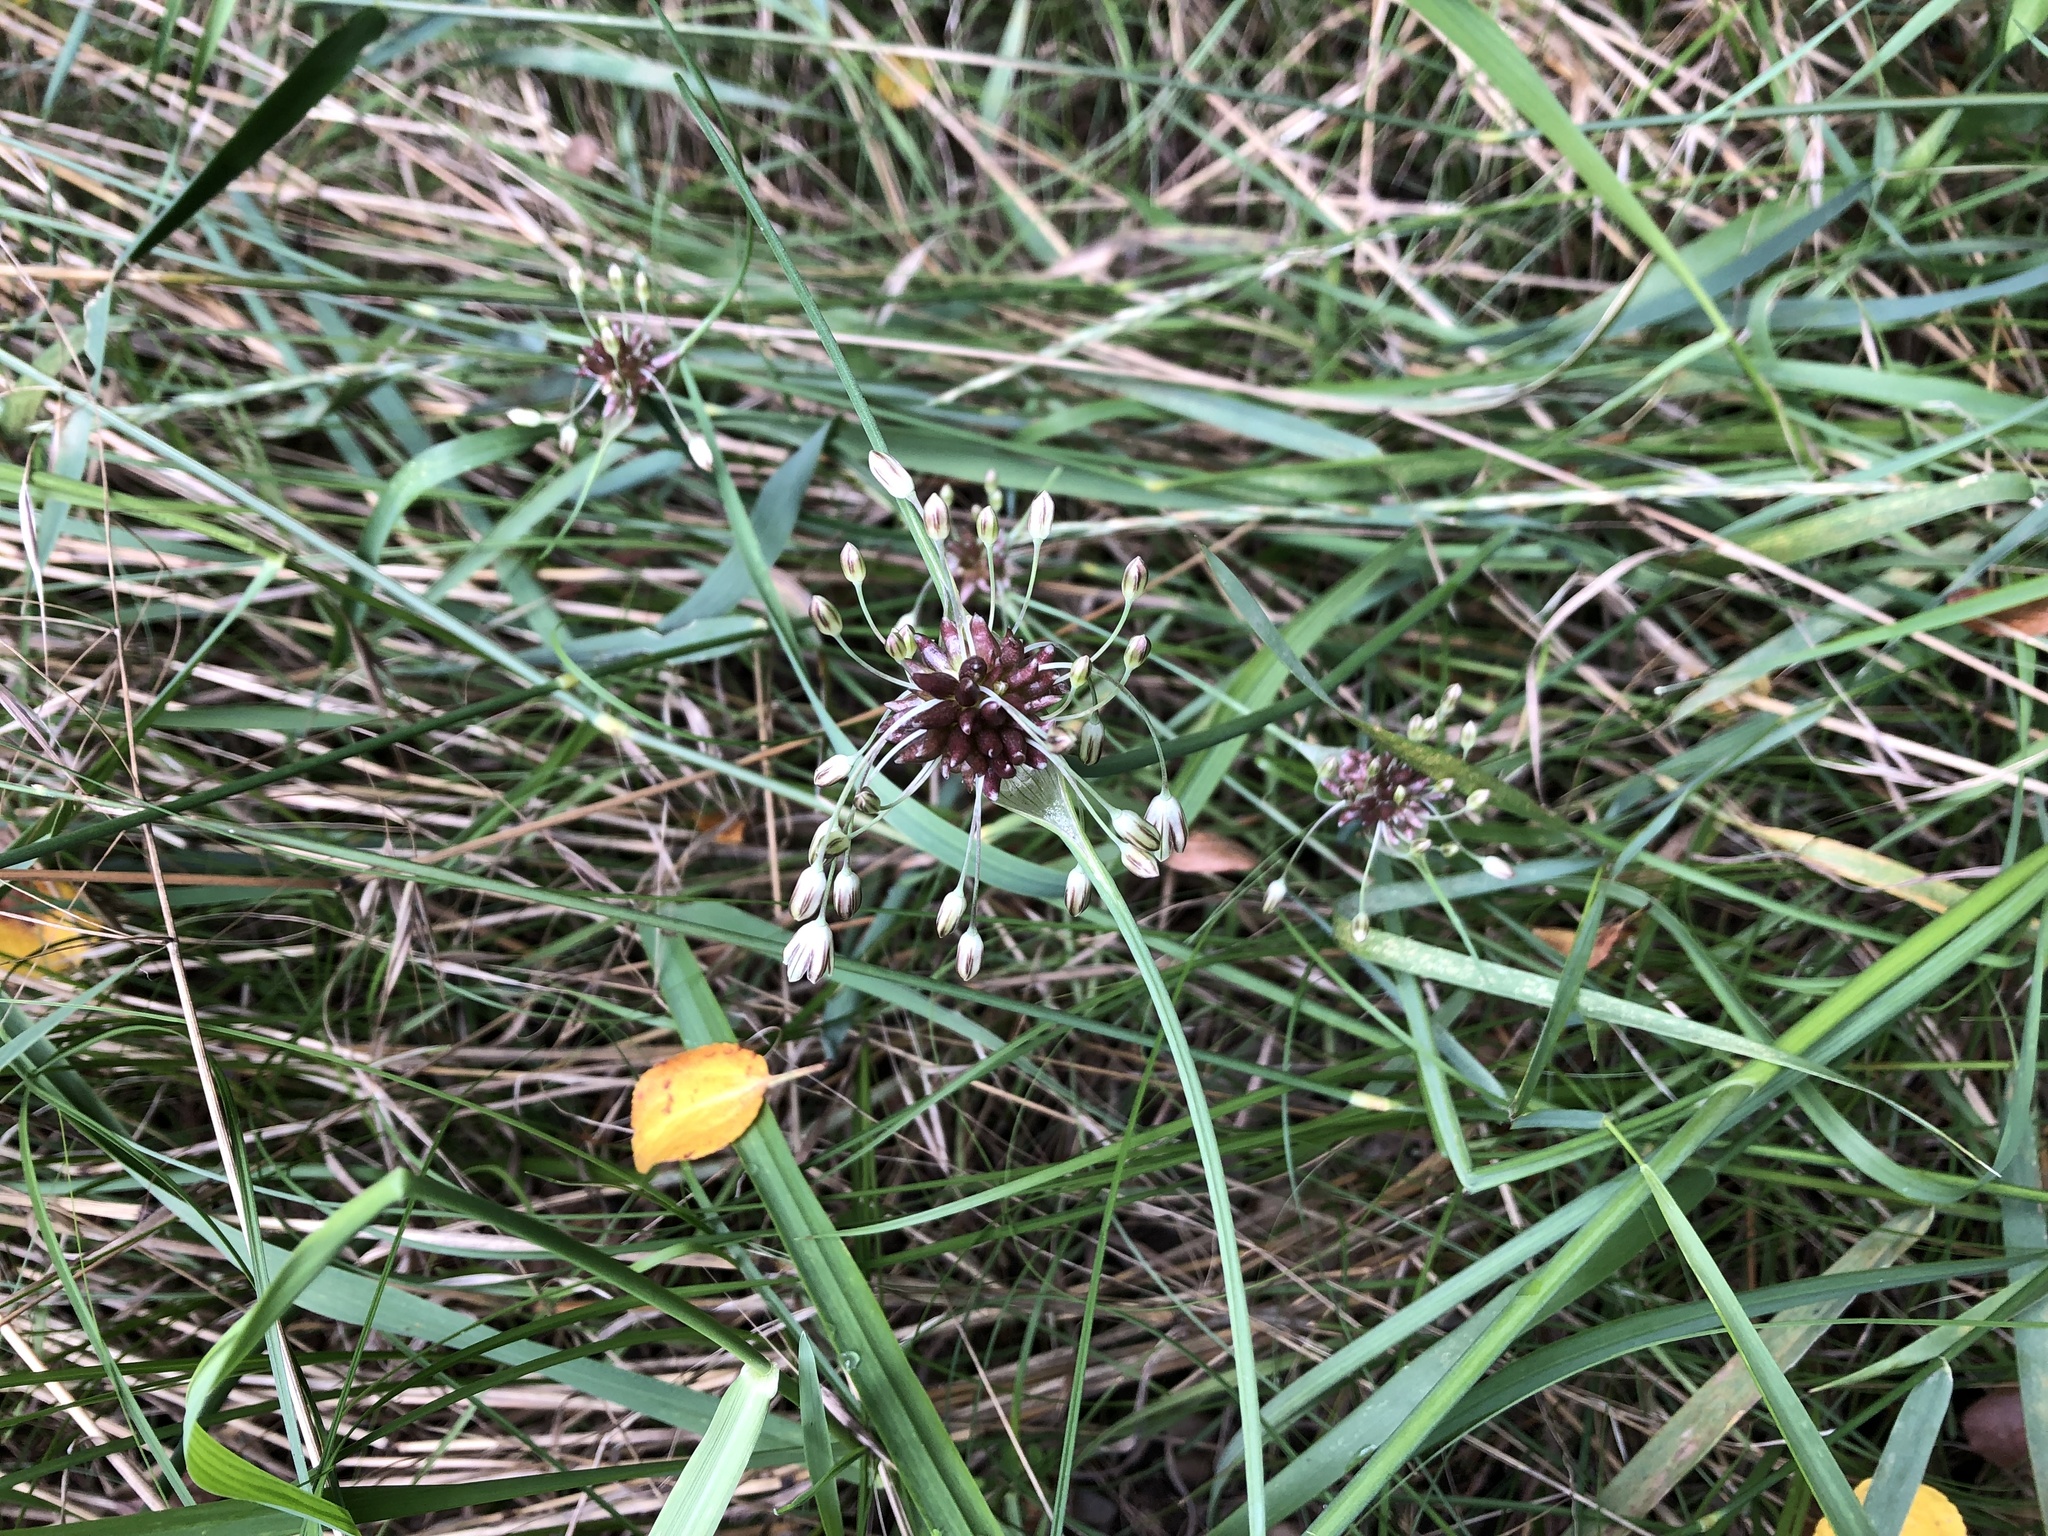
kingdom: Plantae
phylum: Tracheophyta
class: Liliopsida
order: Asparagales
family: Amaryllidaceae
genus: Allium
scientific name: Allium oleraceum
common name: Field garlic
